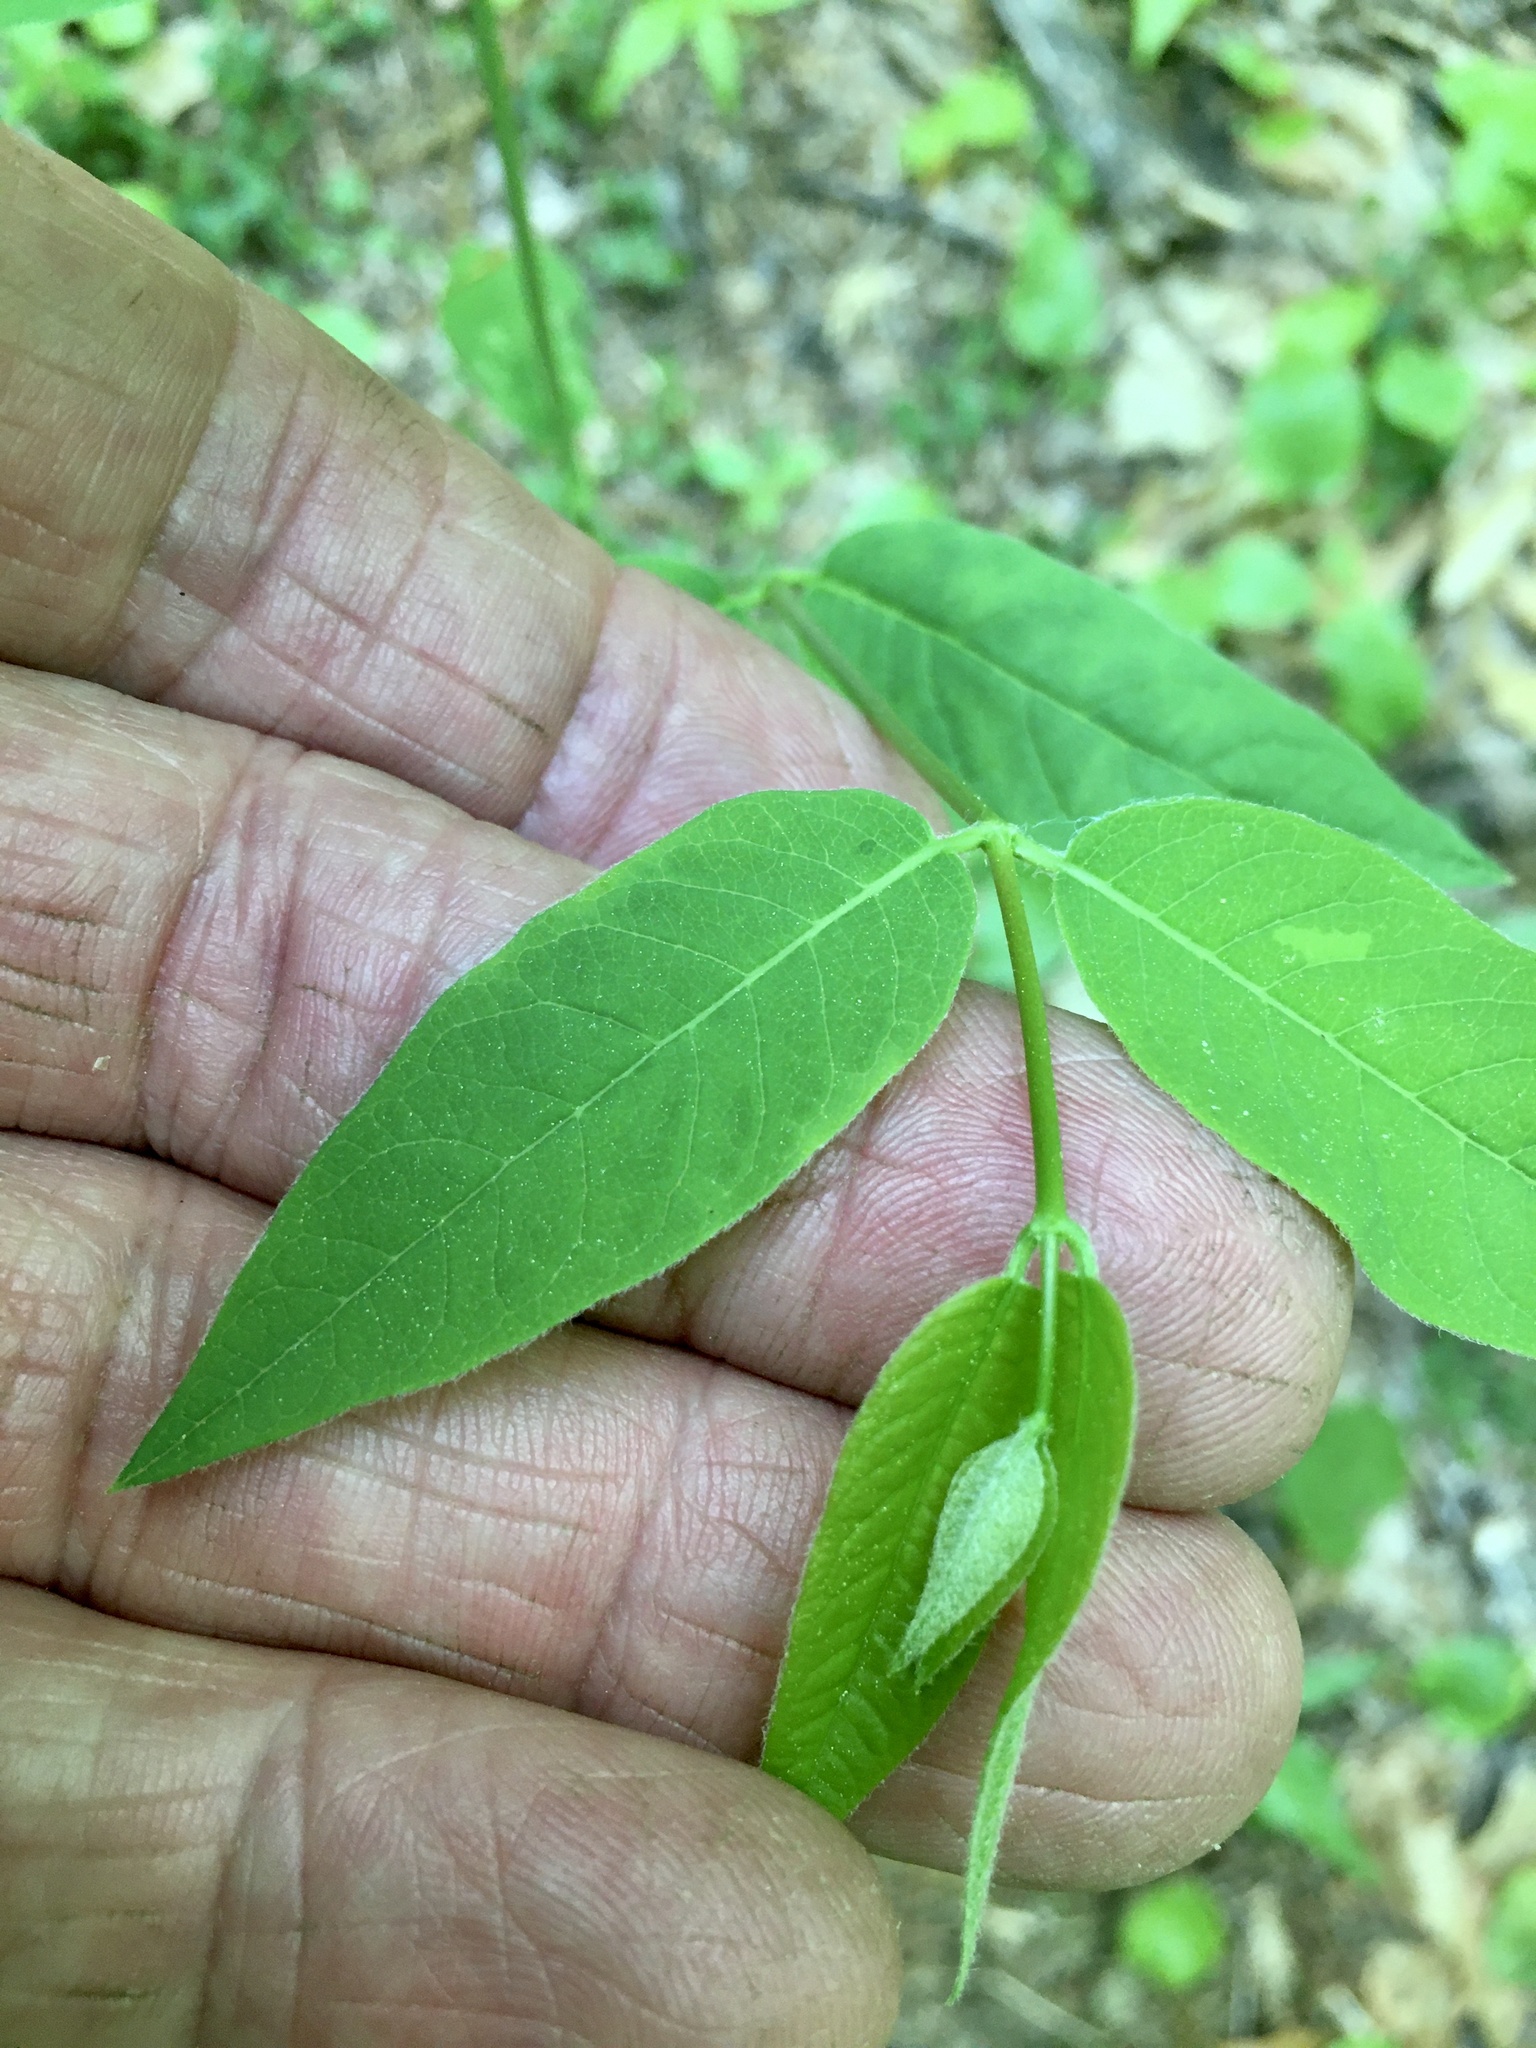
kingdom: Plantae
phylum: Tracheophyta
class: Magnoliopsida
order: Gentianales
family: Apocynaceae
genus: Apocynum
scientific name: Apocynum androsaemifolium
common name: Spreading dogbane
